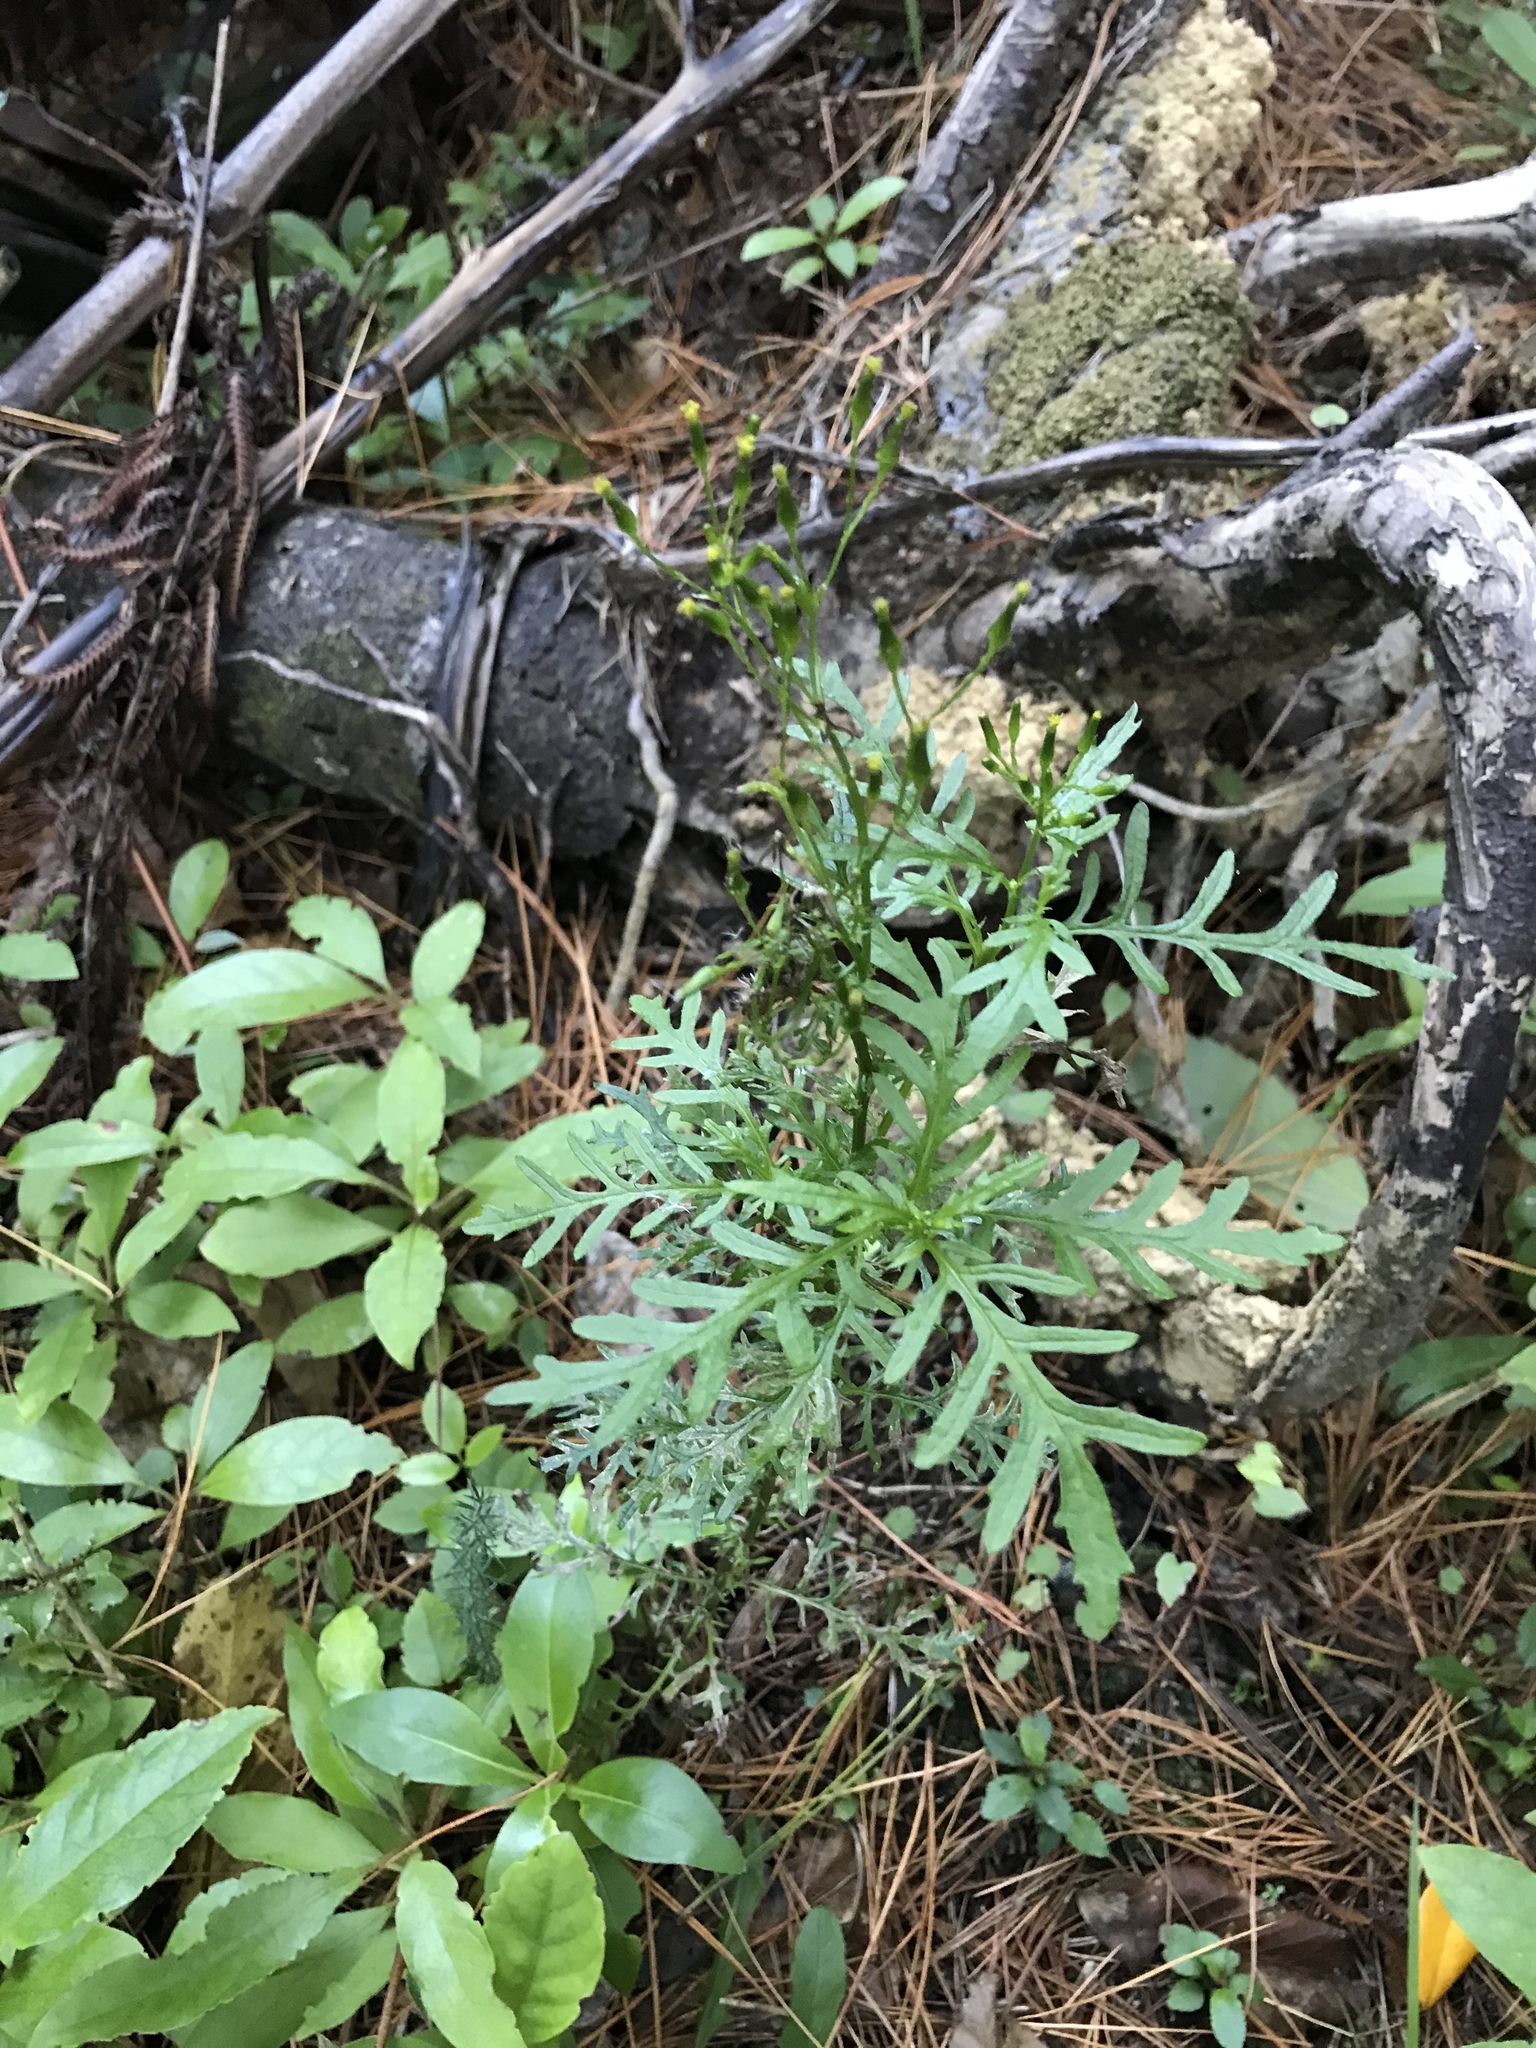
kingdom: Plantae
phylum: Tracheophyta
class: Magnoliopsida
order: Asterales
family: Asteraceae
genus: Senecio
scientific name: Senecio bipinnatisectus
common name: Australian fireweed
